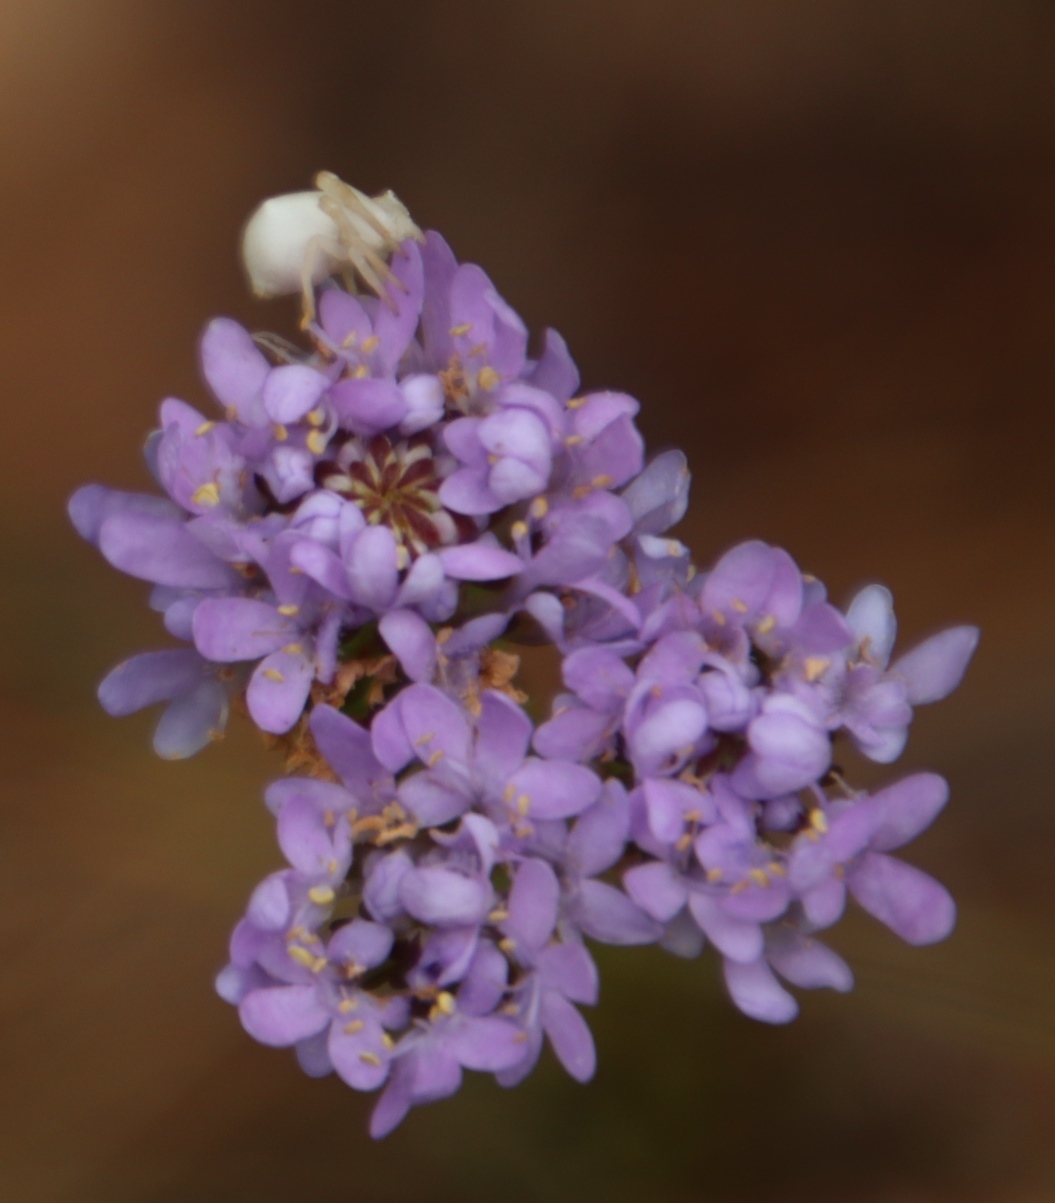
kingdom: Plantae
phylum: Tracheophyta
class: Magnoliopsida
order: Lamiales
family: Scrophulariaceae
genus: Pseudoselago
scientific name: Pseudoselago spuria
